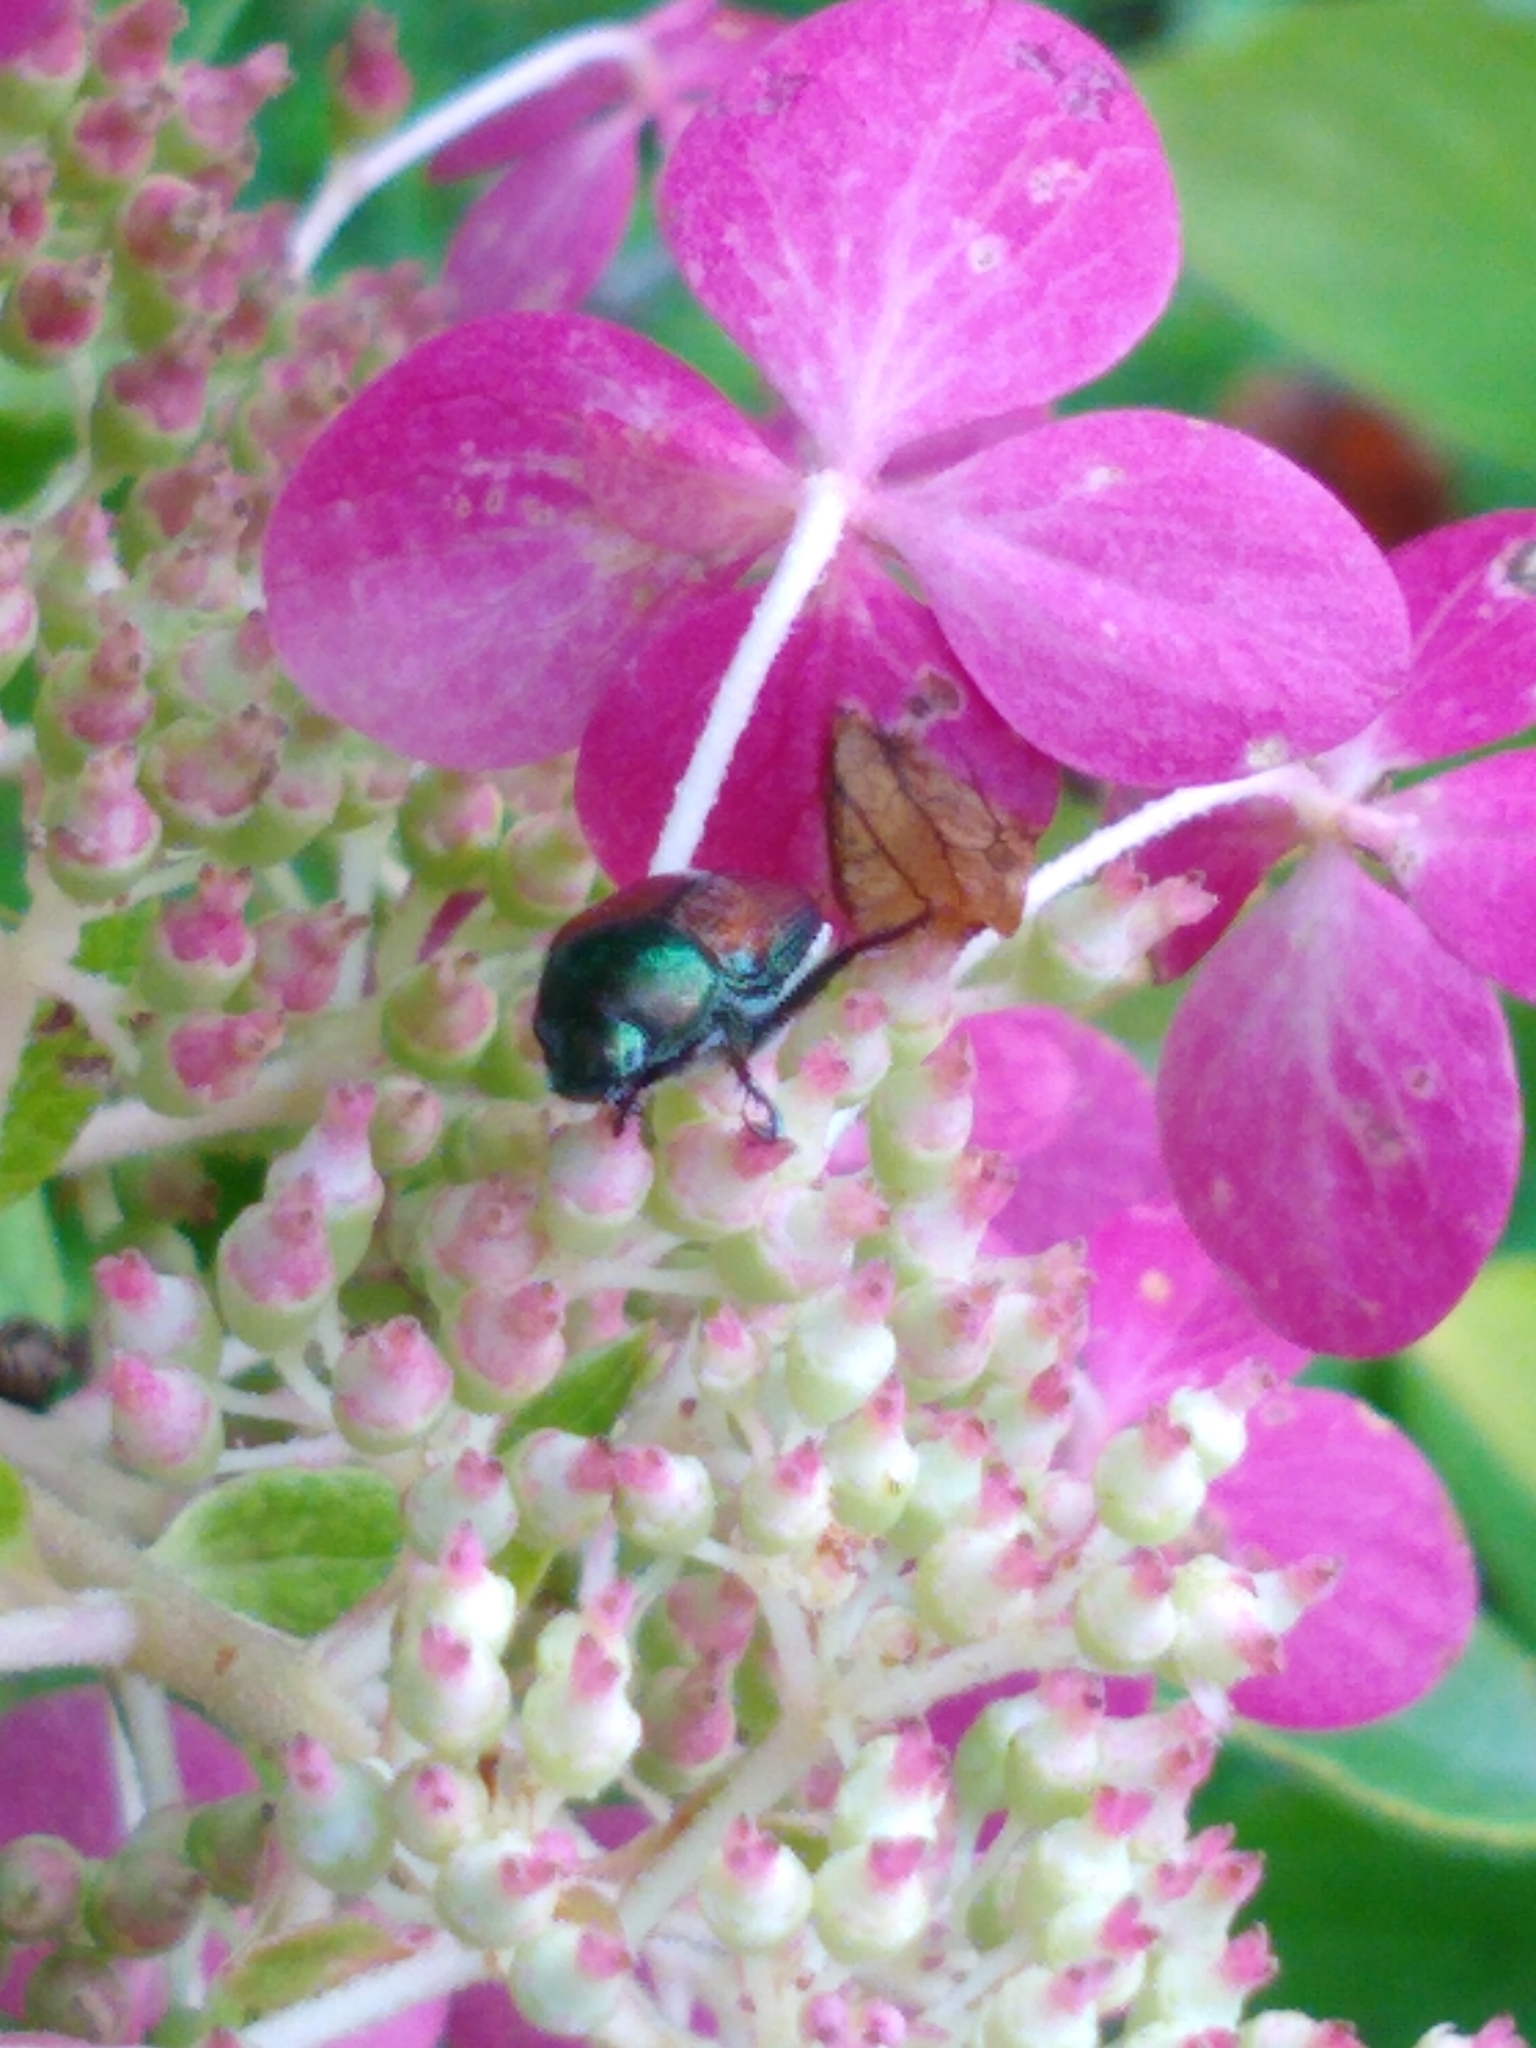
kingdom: Animalia
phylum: Arthropoda
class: Insecta
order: Coleoptera
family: Scarabaeidae
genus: Popillia
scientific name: Popillia japonica
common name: Japanese beetle
